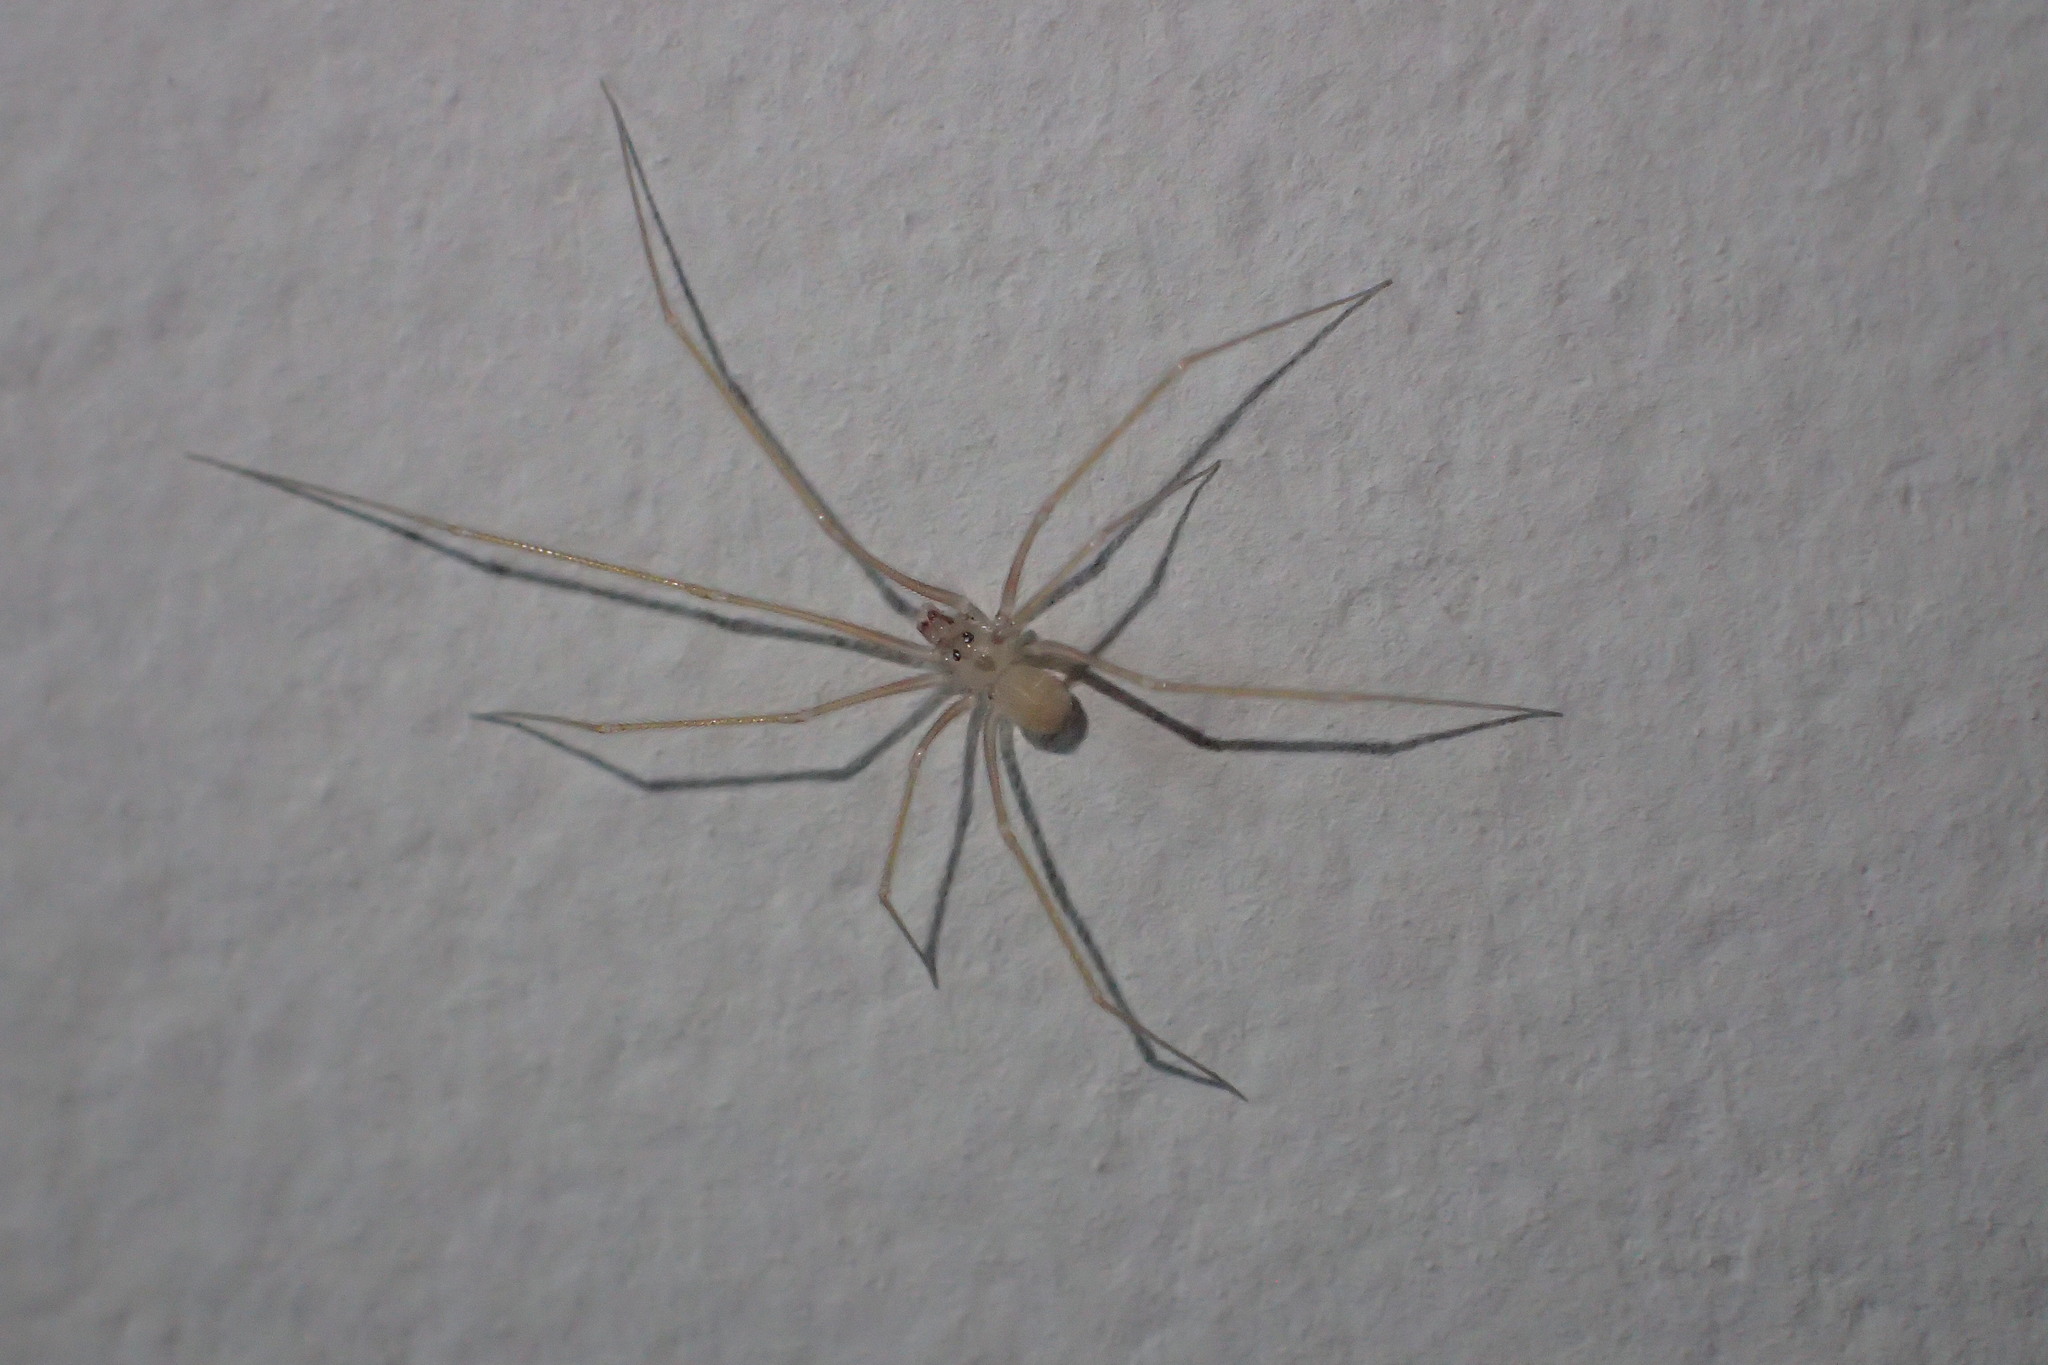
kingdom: Animalia
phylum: Arthropoda
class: Arachnida
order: Araneae
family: Pholcidae
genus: Spermophora
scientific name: Spermophora senoculata
